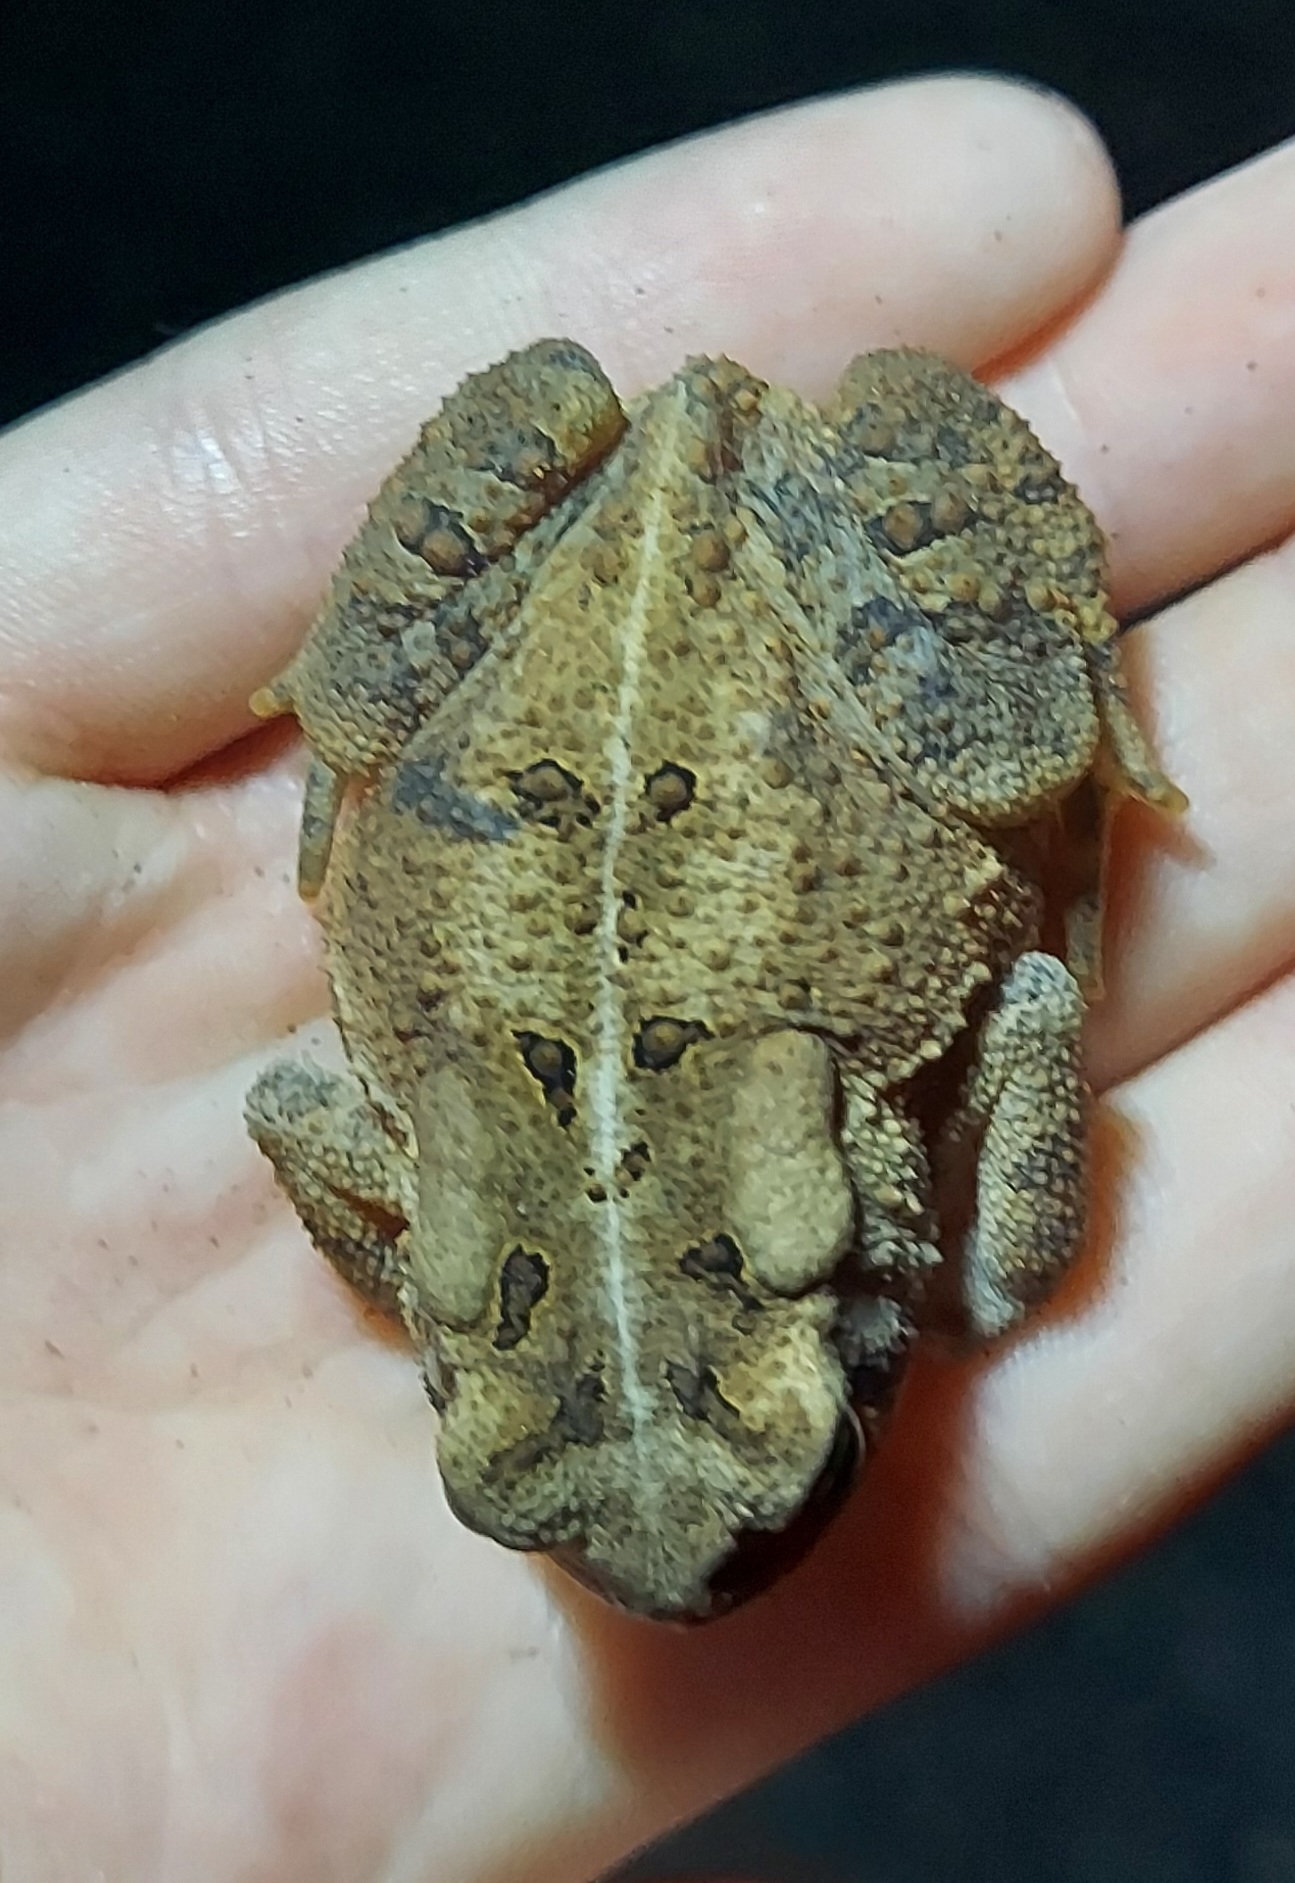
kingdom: Animalia
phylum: Chordata
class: Amphibia
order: Anura
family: Bufonidae
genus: Anaxyrus
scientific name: Anaxyrus americanus
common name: American toad
